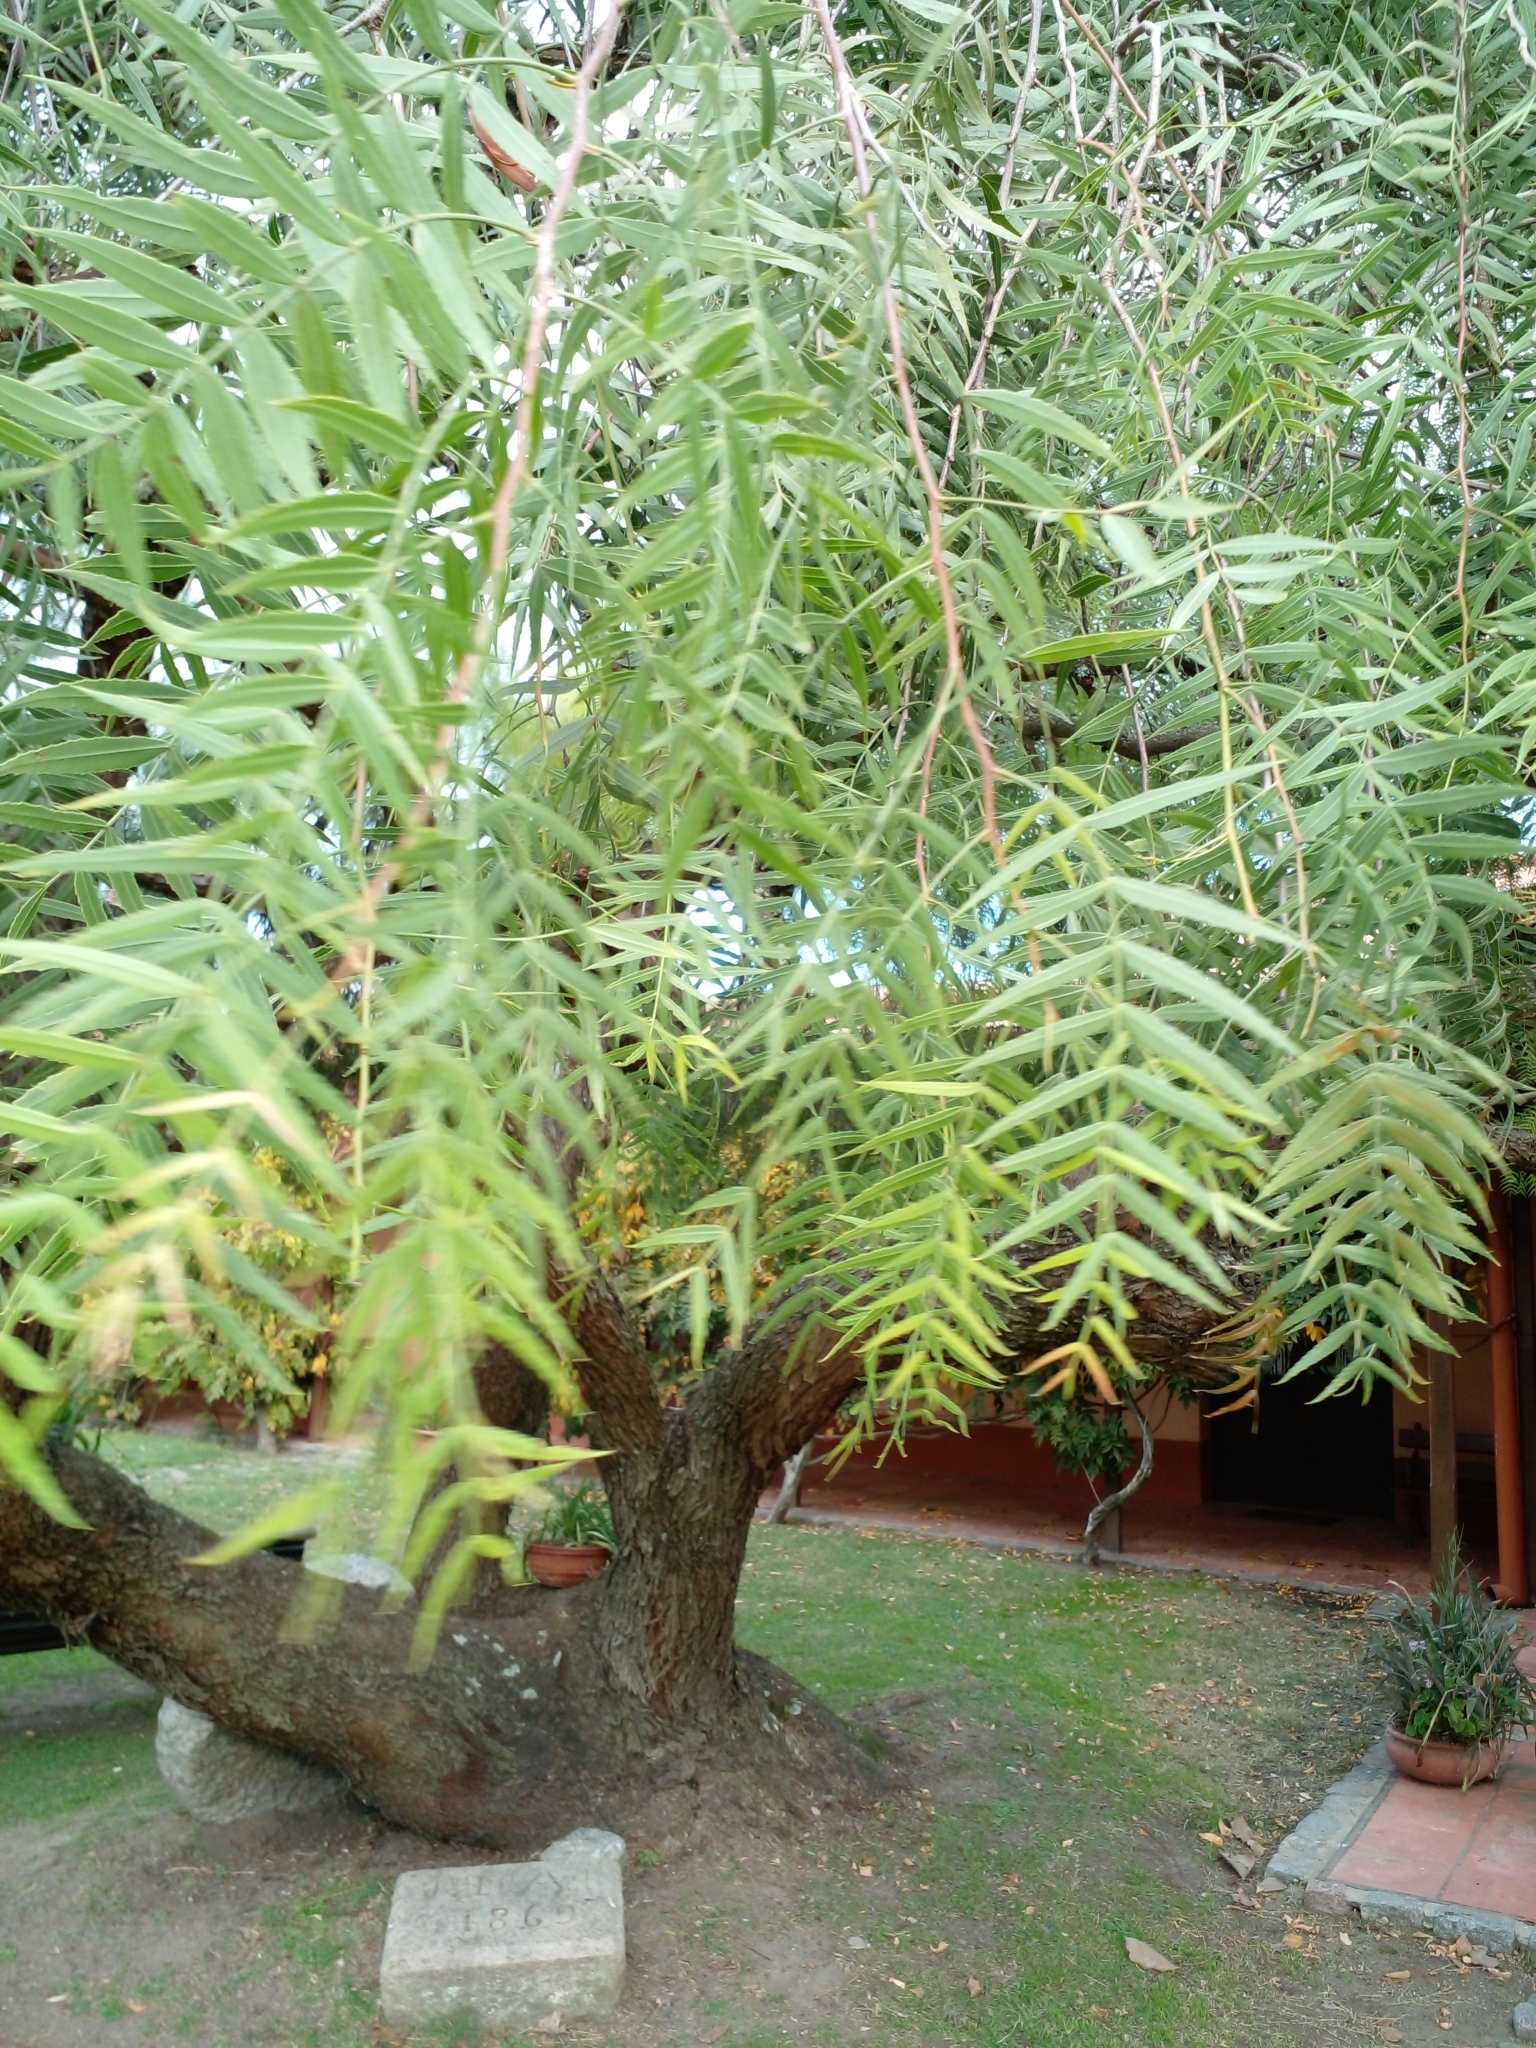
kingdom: Plantae
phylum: Tracheophyta
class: Magnoliopsida
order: Sapindales
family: Anacardiaceae
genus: Schinus
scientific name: Schinus molle
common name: Peruvian peppertree
